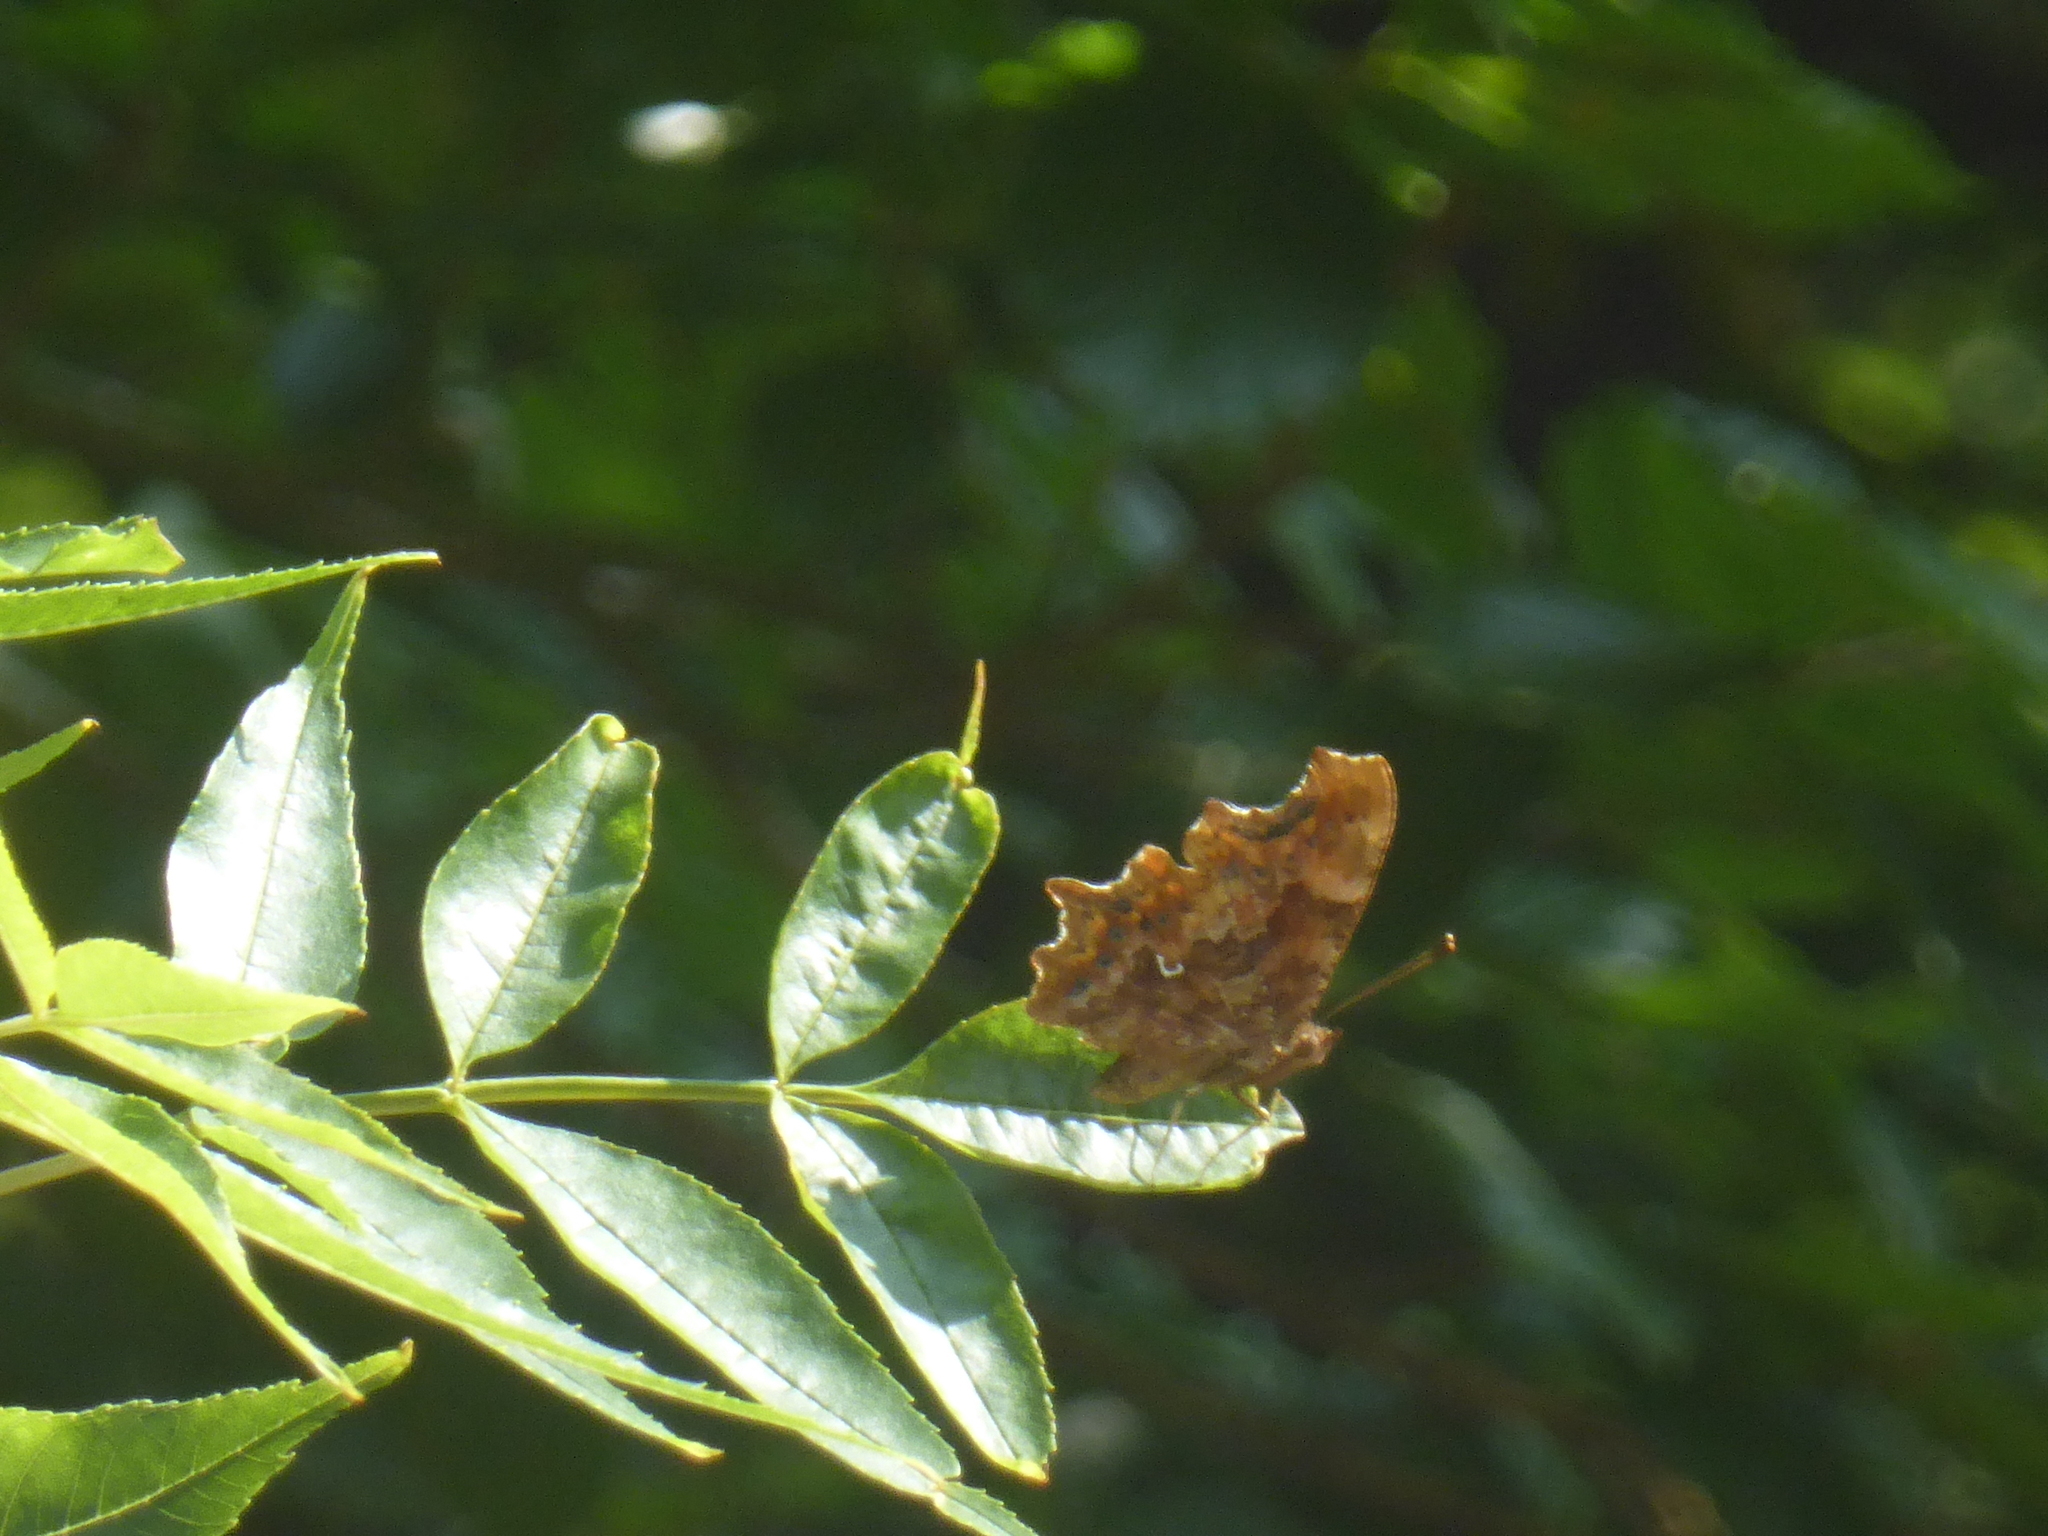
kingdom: Animalia
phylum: Arthropoda
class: Insecta
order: Lepidoptera
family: Nymphalidae
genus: Polygonia
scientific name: Polygonia c-album
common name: Comma
